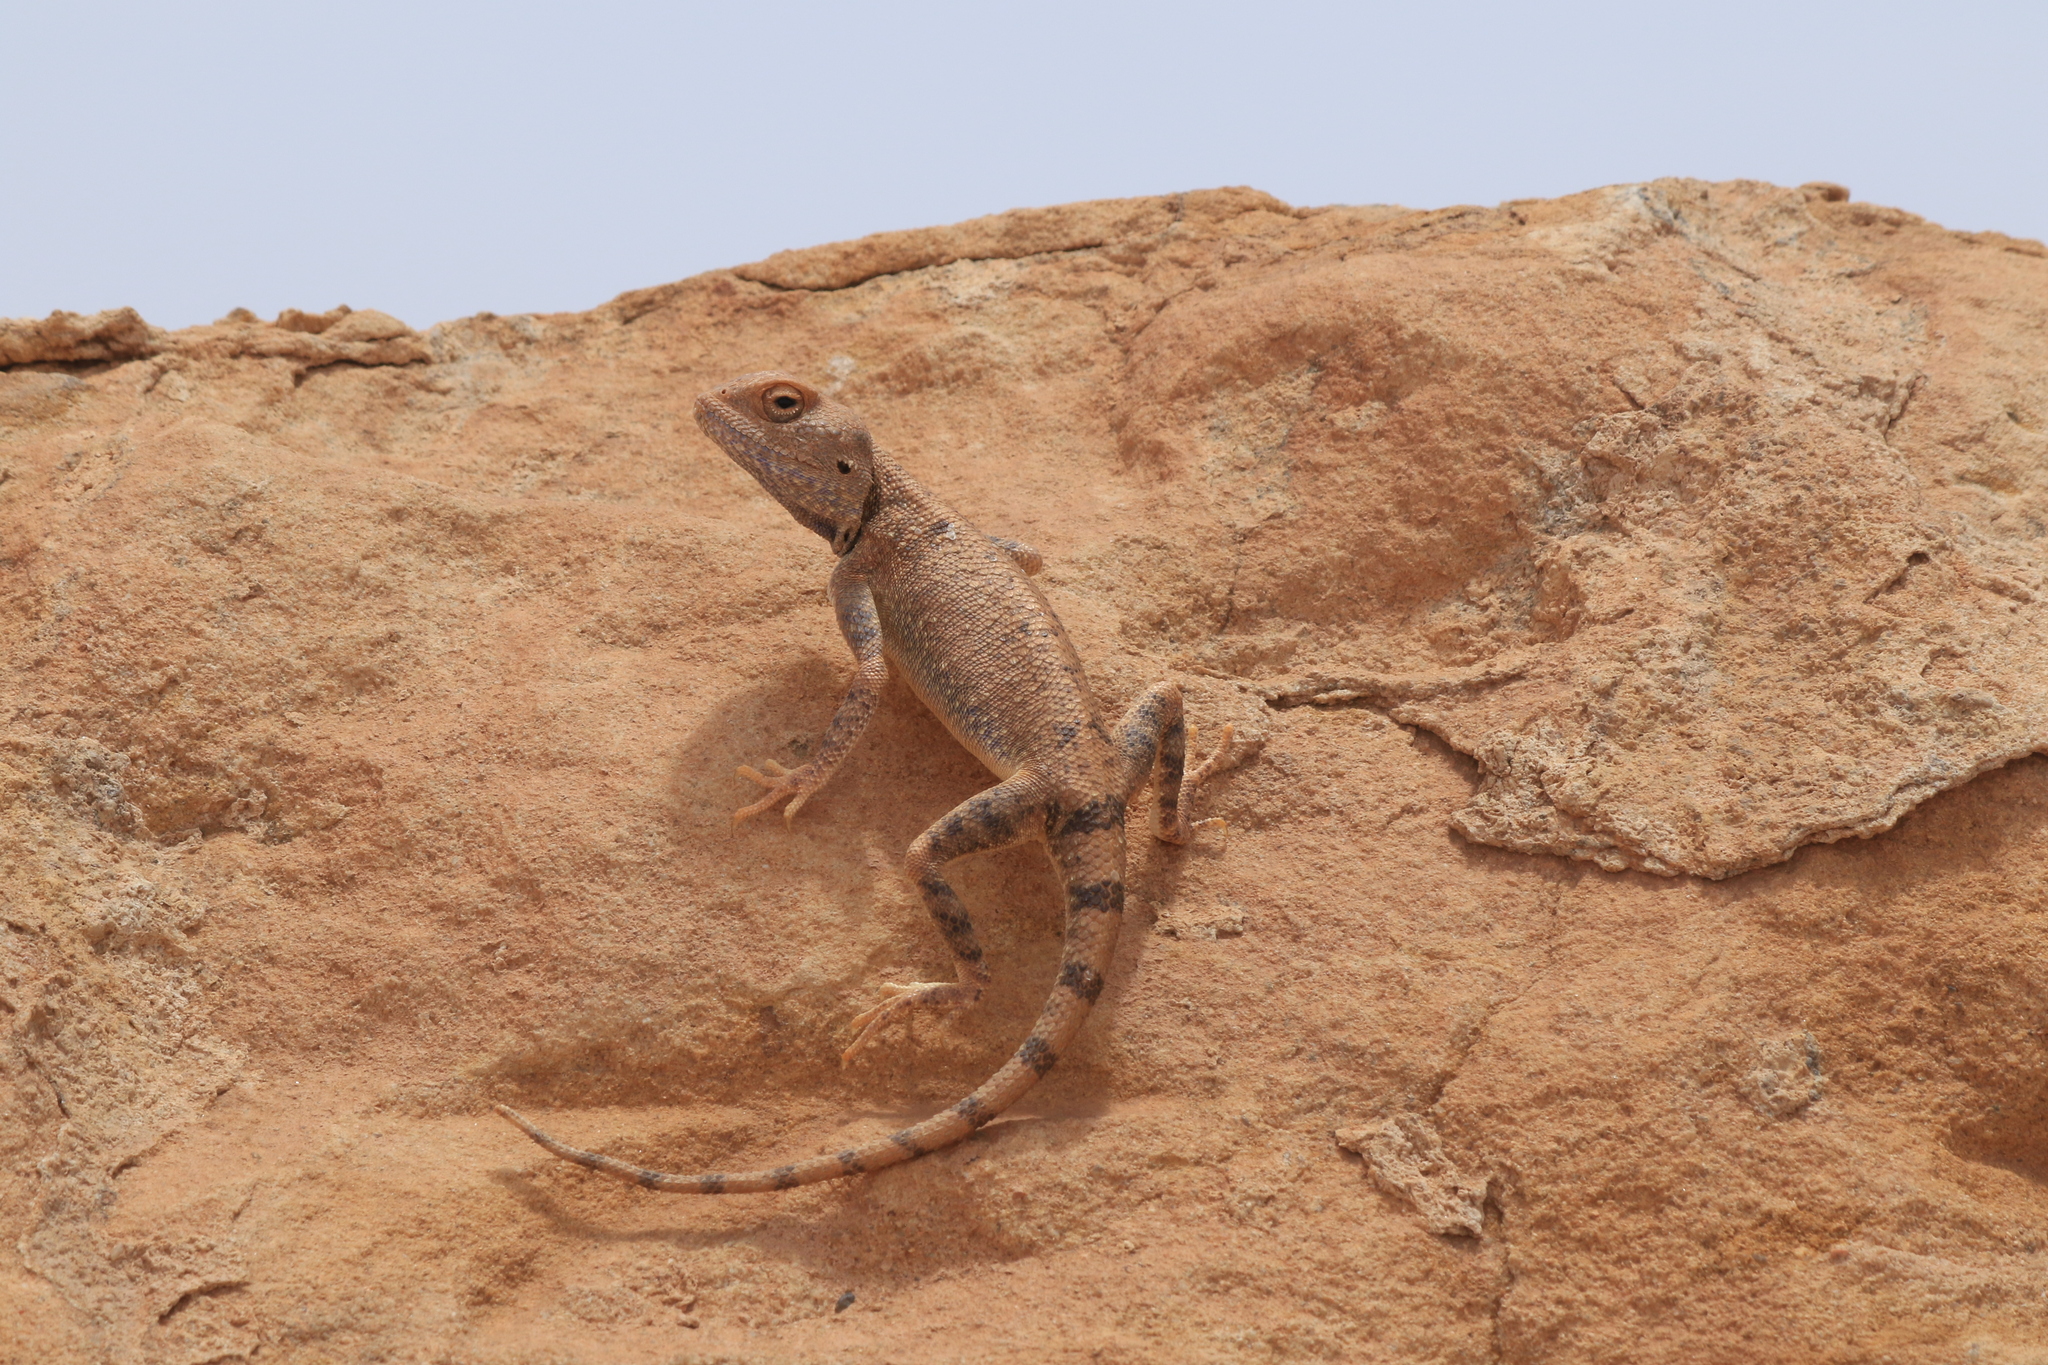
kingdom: Animalia
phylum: Chordata
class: Squamata
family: Agamidae
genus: Trapelus
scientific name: Trapelus boehmei
